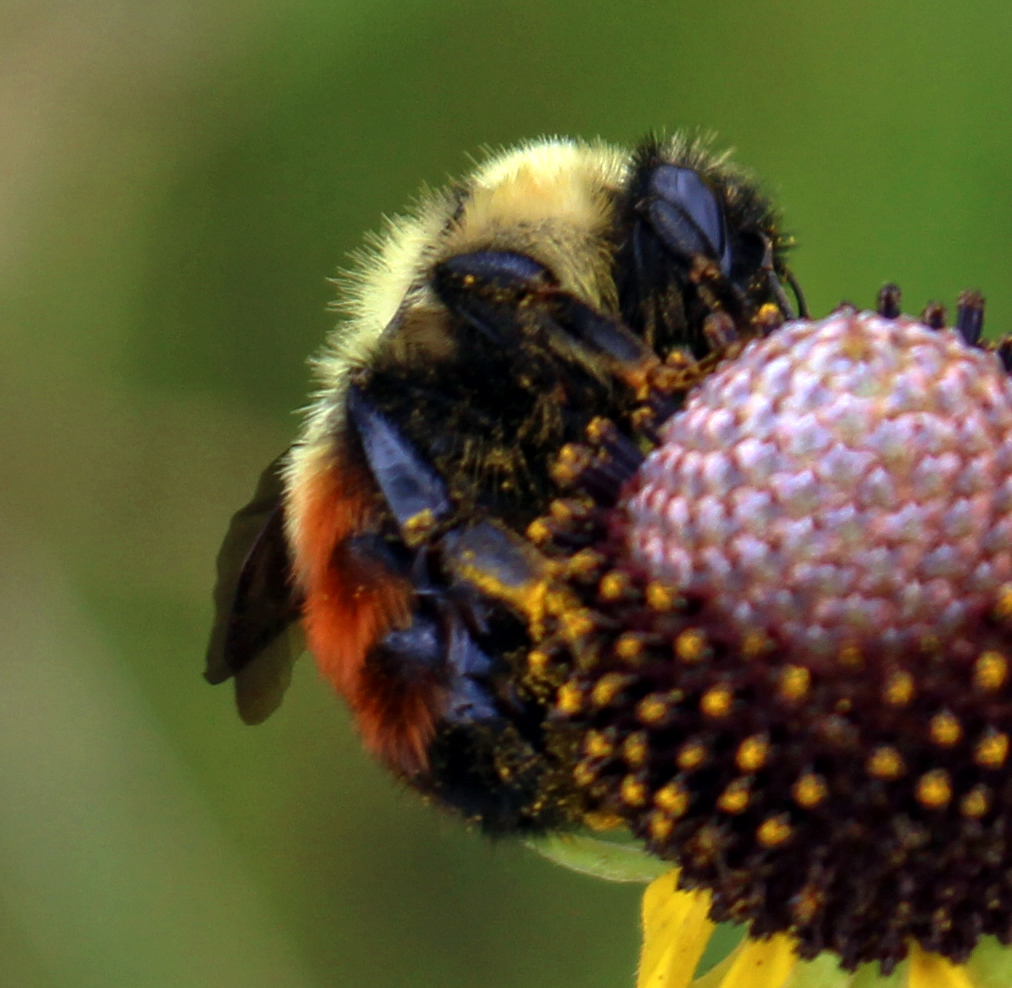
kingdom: Animalia
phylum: Arthropoda
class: Insecta
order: Hymenoptera
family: Apidae
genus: Bombus
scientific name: Bombus rufocinctus
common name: Red-belted bumble bee
